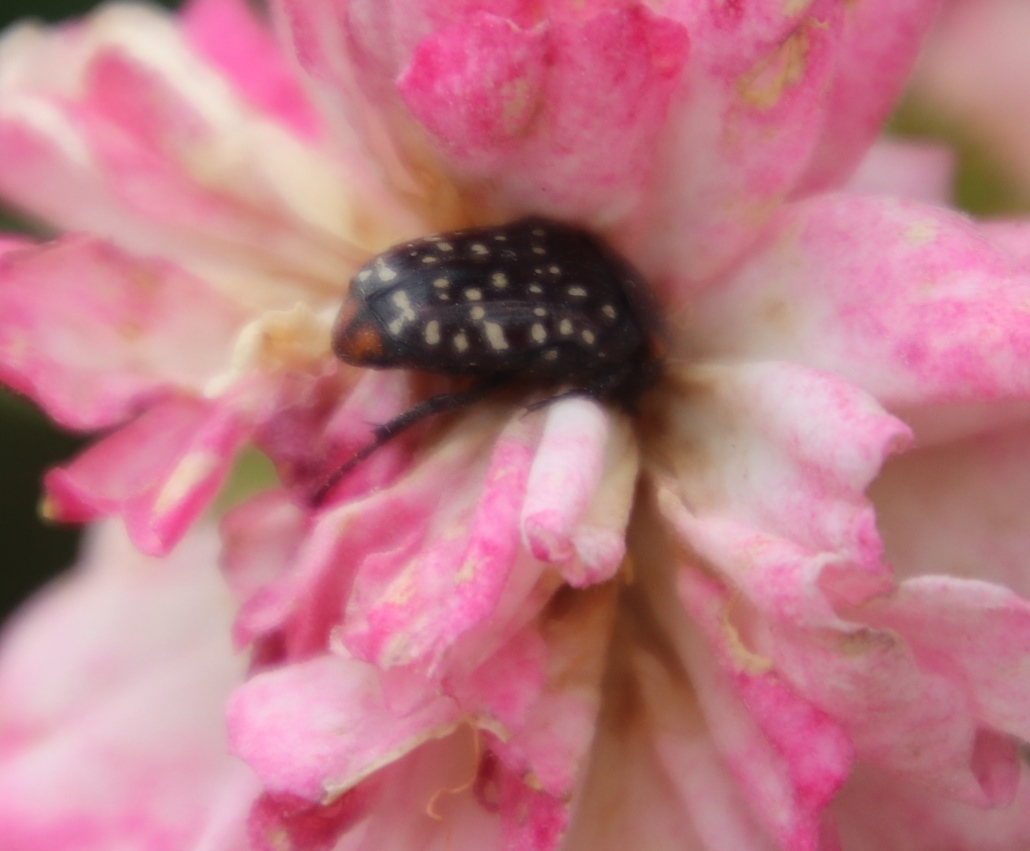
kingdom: Animalia
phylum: Arthropoda
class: Insecta
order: Coleoptera
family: Scarabaeidae
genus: Oxythyrea
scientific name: Oxythyrea
